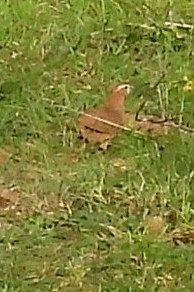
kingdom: Animalia
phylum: Chordata
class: Aves
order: Galliformes
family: Phasianidae
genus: Perdicula
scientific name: Perdicula argoondah
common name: Rock bush-quail
